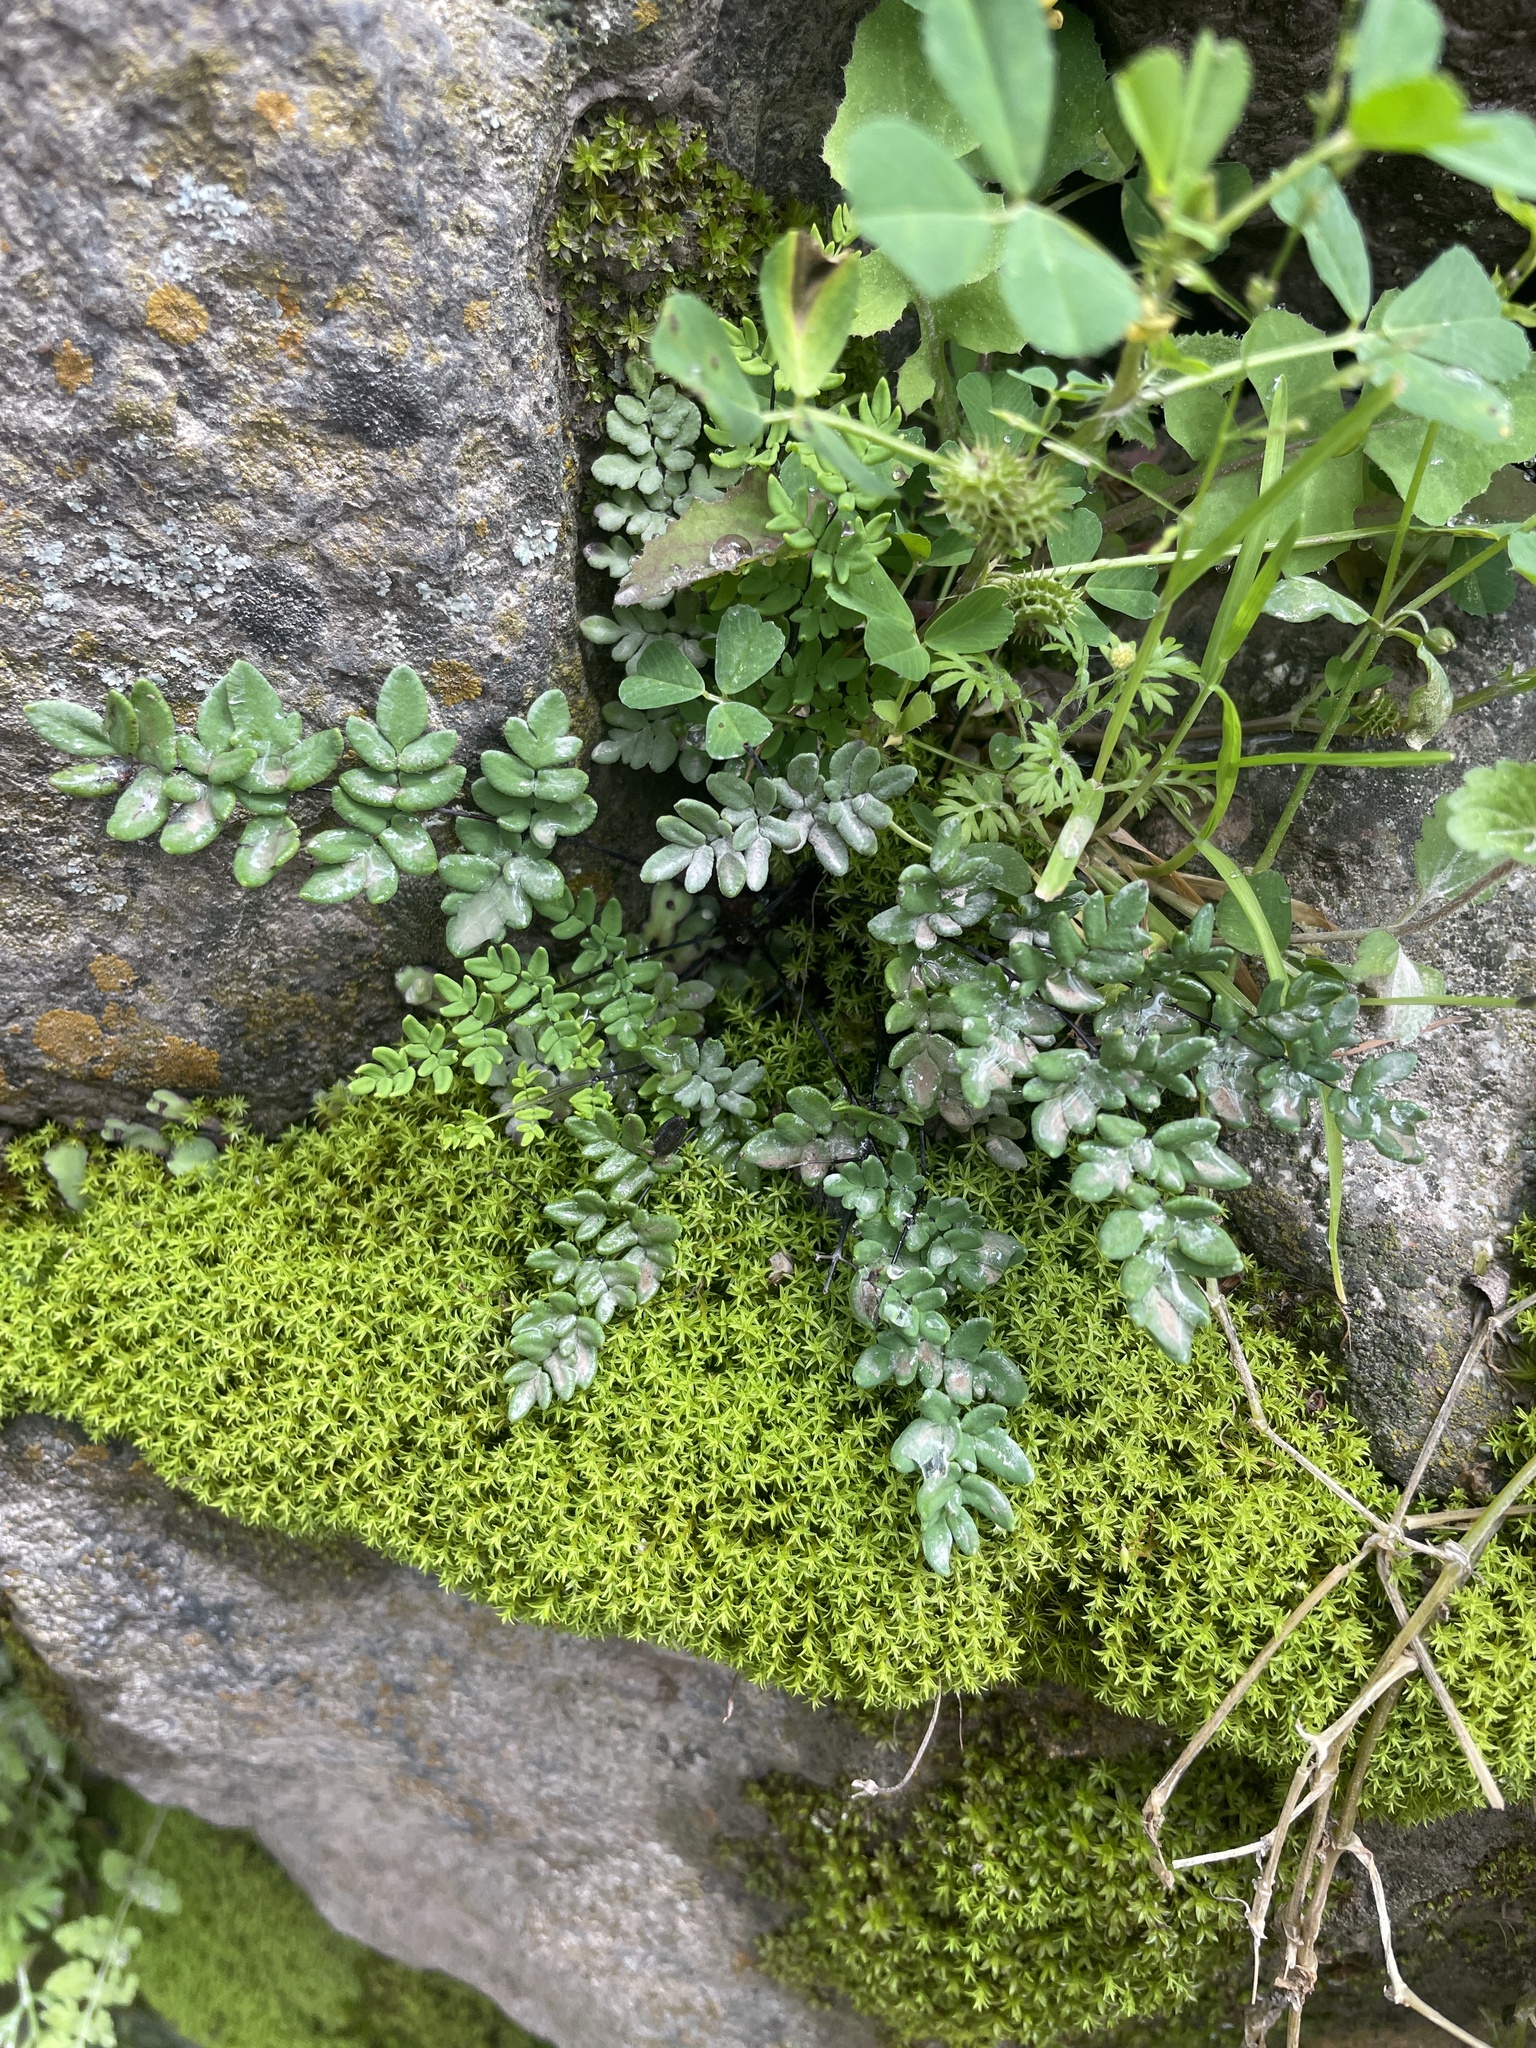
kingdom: Plantae
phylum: Tracheophyta
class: Polypodiopsida
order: Polypodiales
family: Pteridaceae
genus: Argyrochosma
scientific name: Argyrochosma tenera
